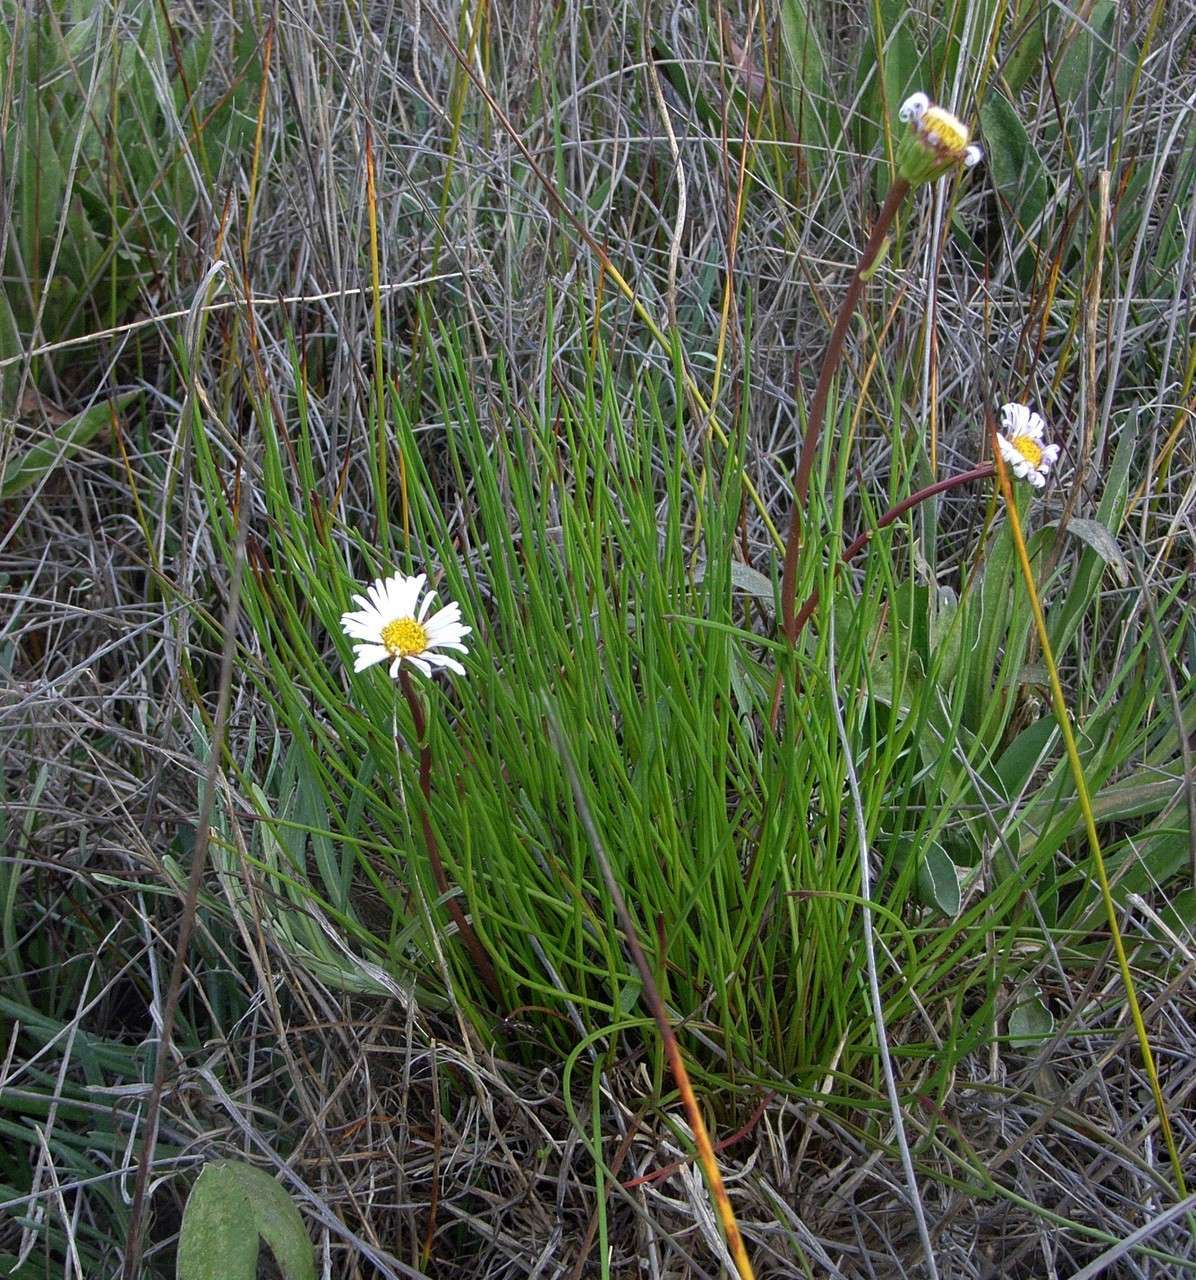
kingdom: Plantae
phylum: Tracheophyta
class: Magnoliopsida
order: Asterales
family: Asteraceae
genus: Allittia
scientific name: Allittia cardiocarpa
